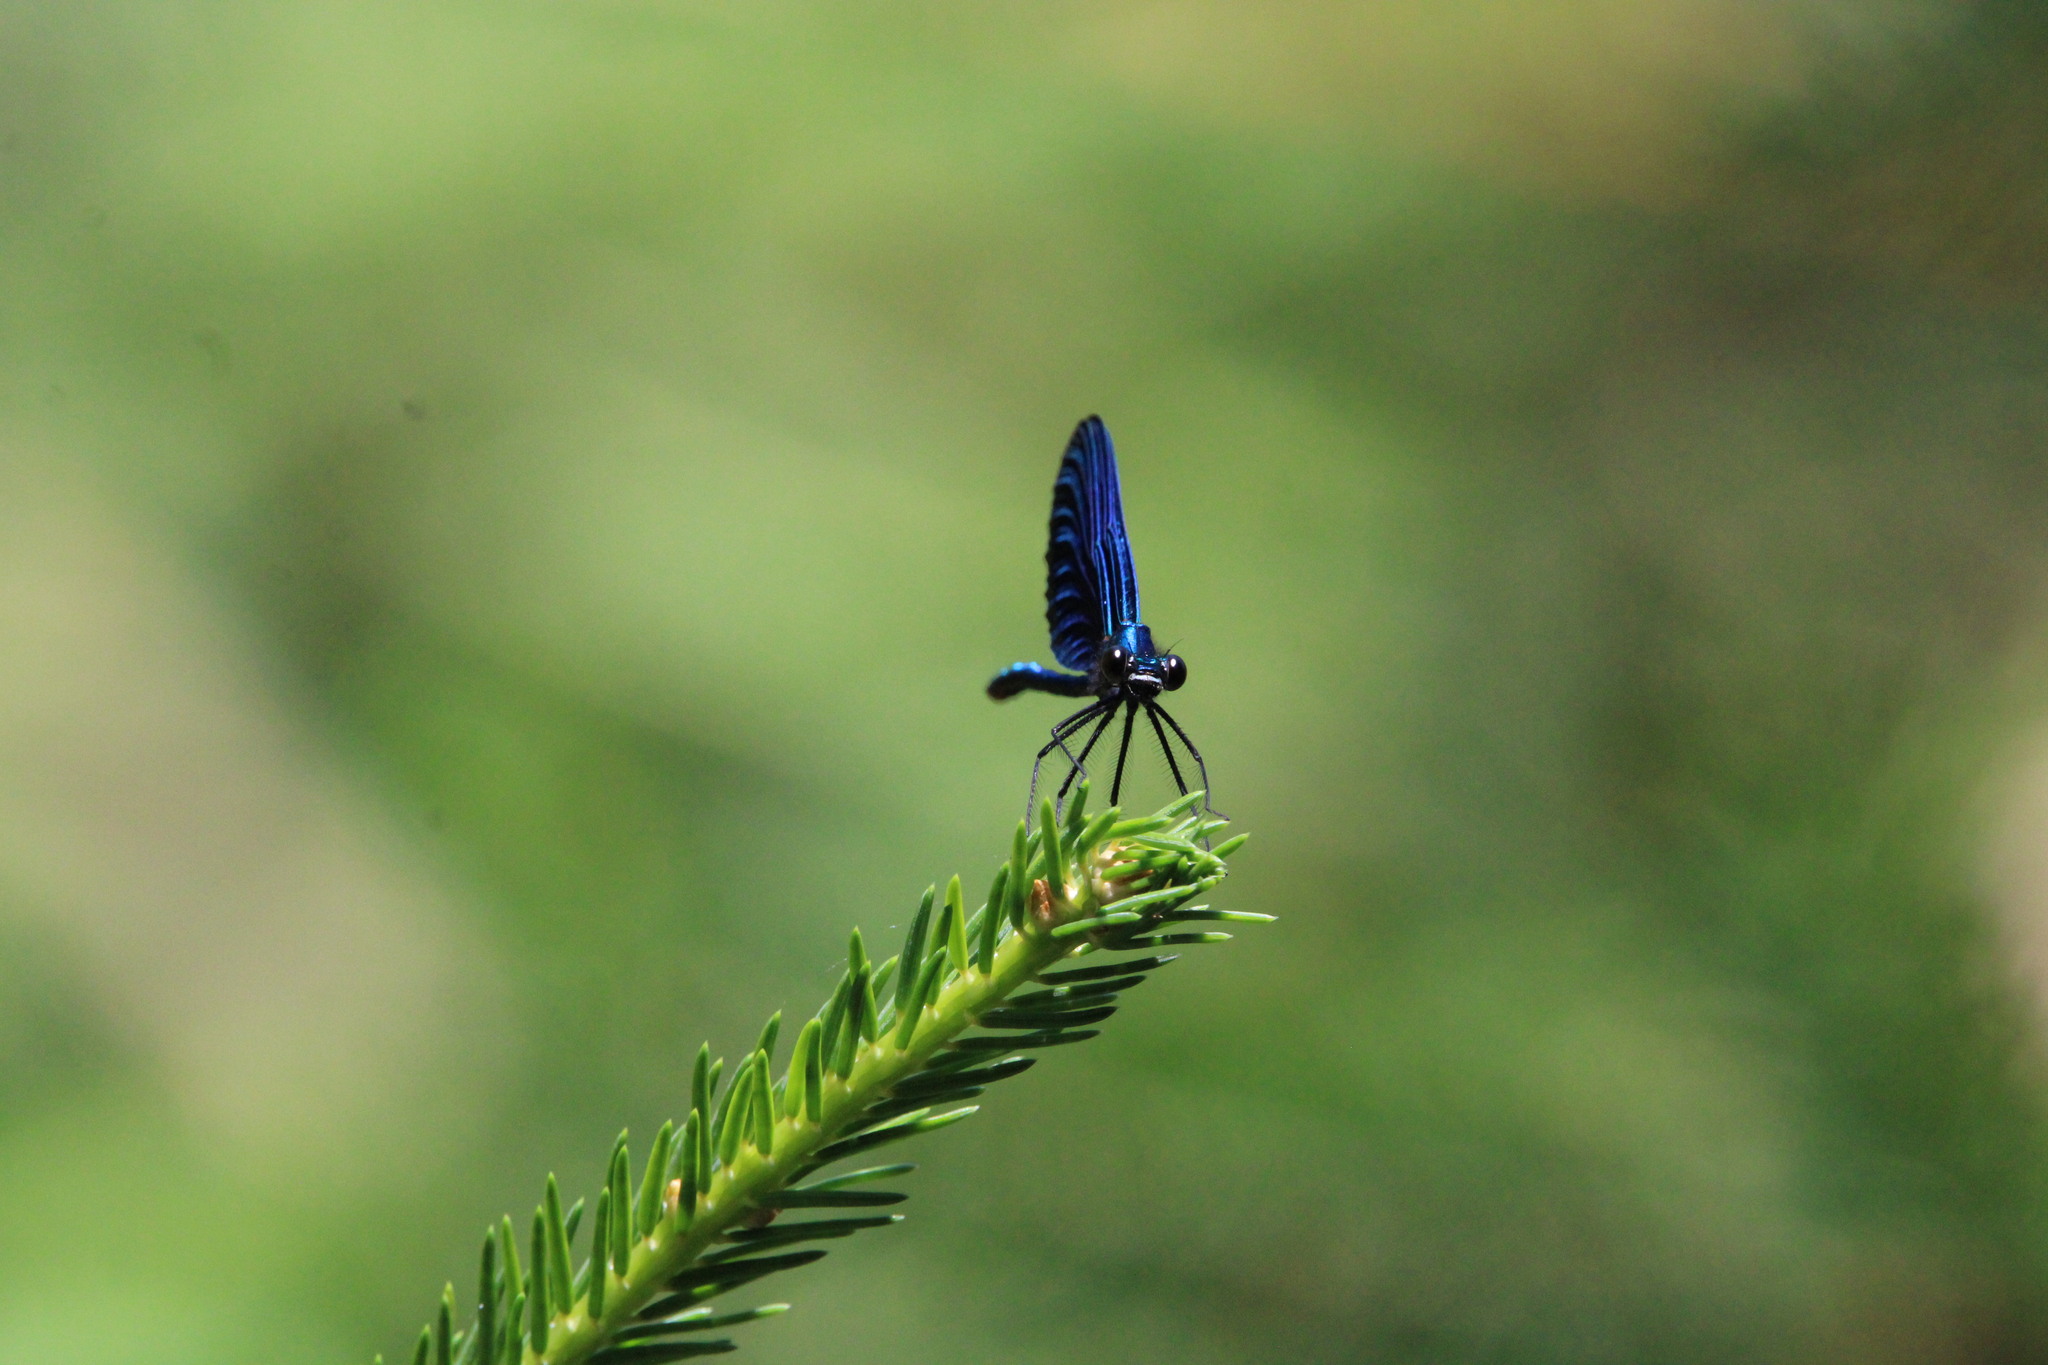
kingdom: Animalia
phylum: Arthropoda
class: Insecta
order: Odonata
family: Calopterygidae
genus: Calopteryx
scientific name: Calopteryx virgo
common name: Beautiful demoiselle
